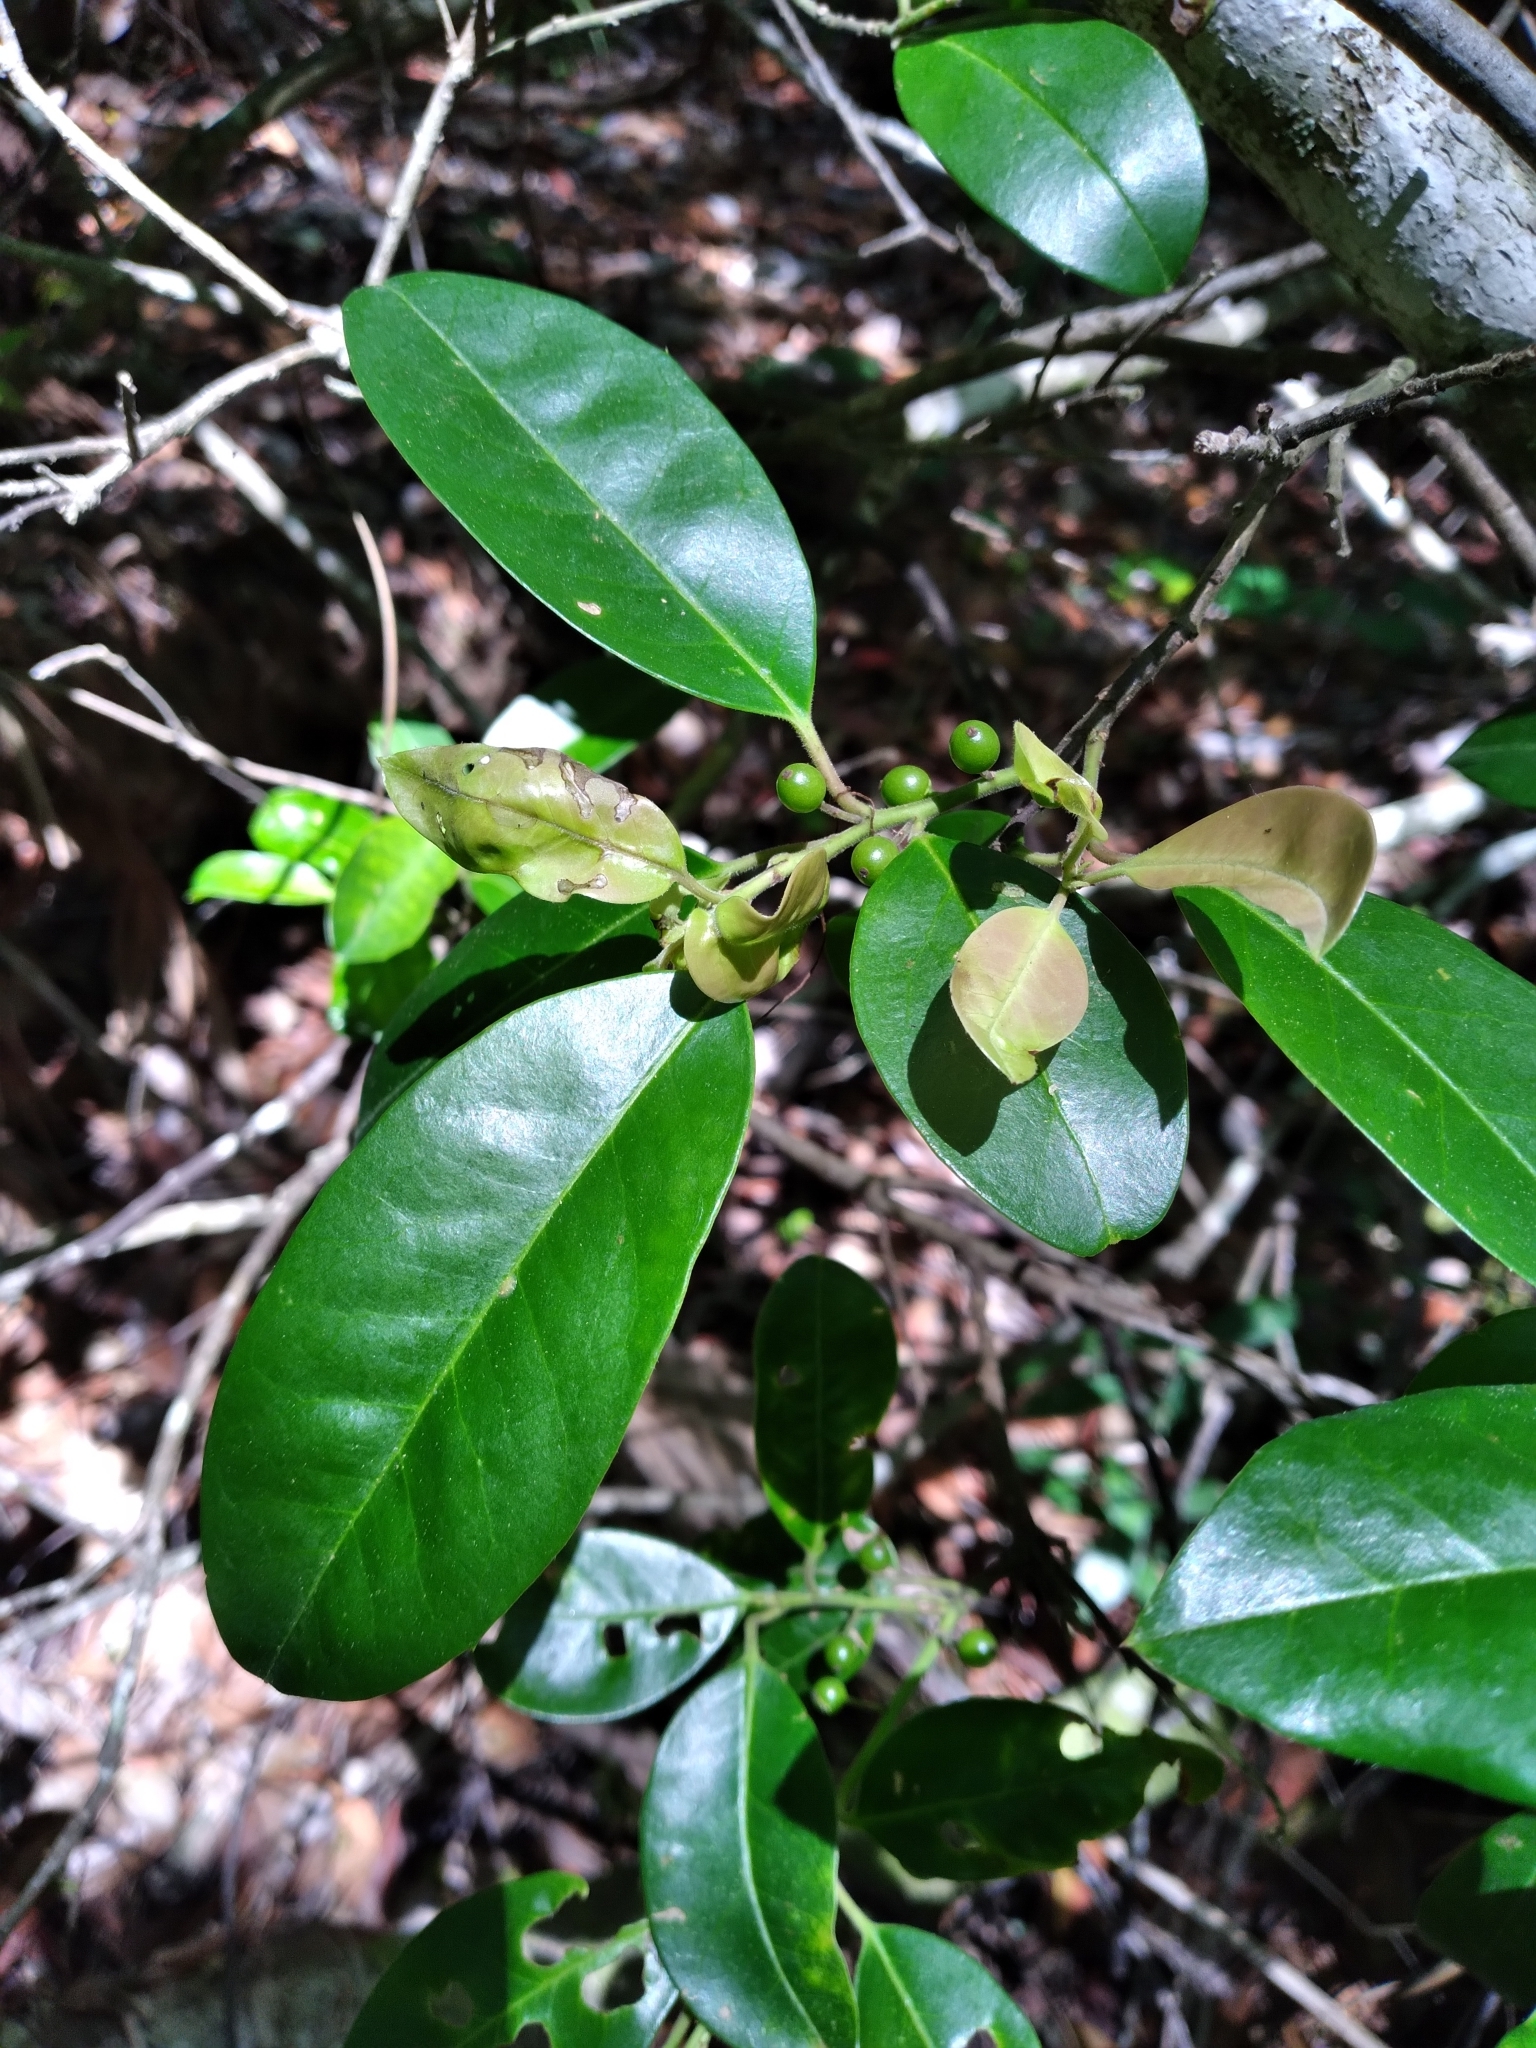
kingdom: Plantae
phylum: Tracheophyta
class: Magnoliopsida
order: Aquifoliales
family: Aquifoliaceae
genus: Ilex
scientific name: Ilex cassine
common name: Dahoon
